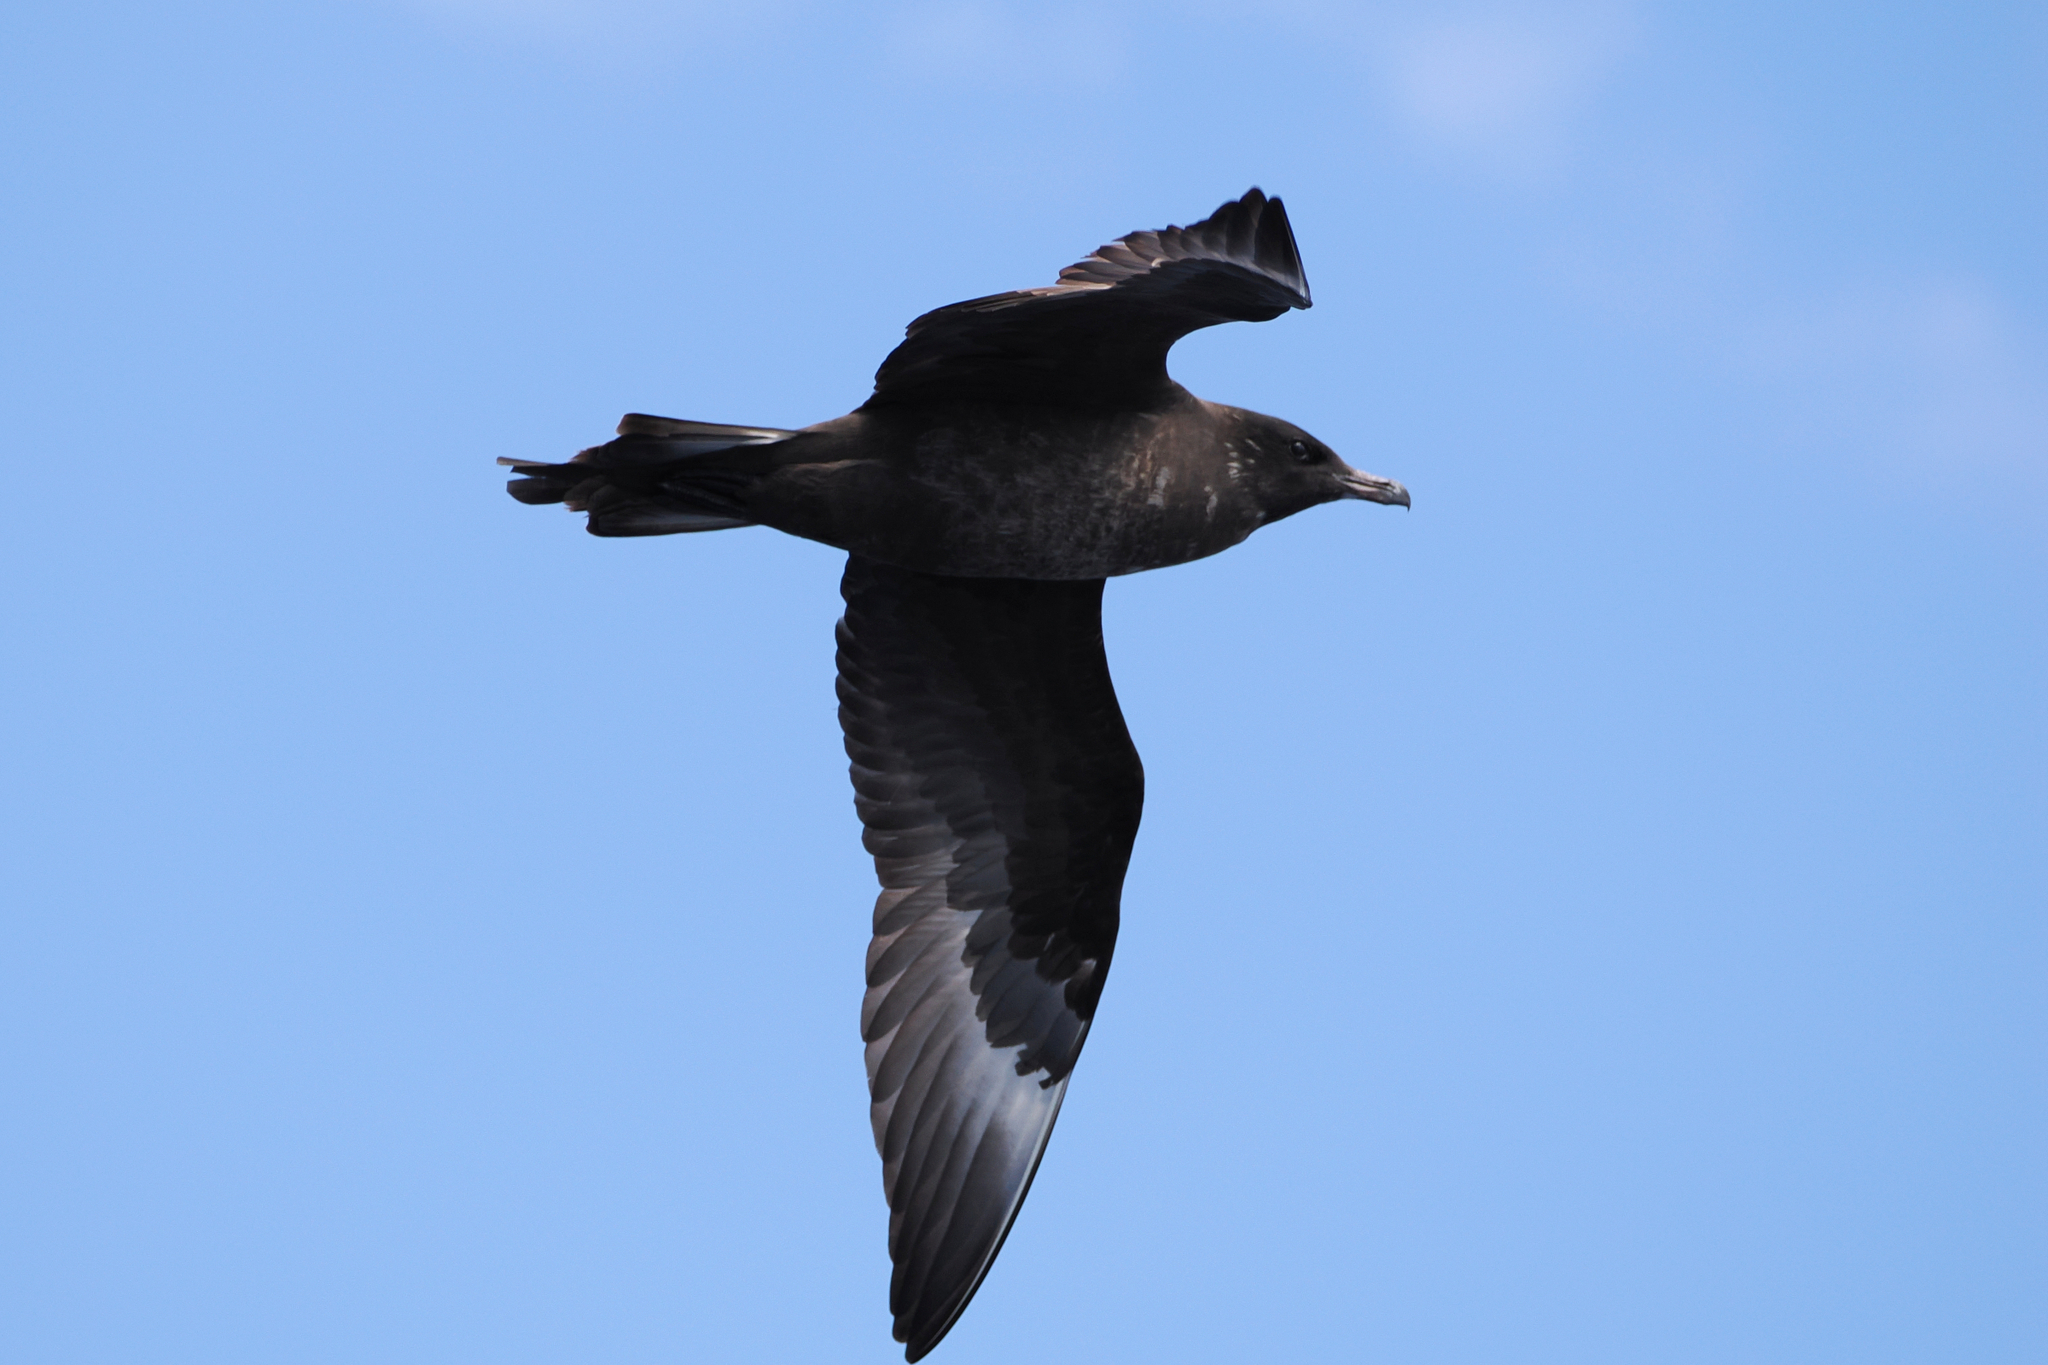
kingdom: Animalia
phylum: Chordata
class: Aves
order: Charadriiformes
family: Stercorariidae
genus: Stercorarius
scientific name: Stercorarius pomarinus
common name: Pomarine jaeger
